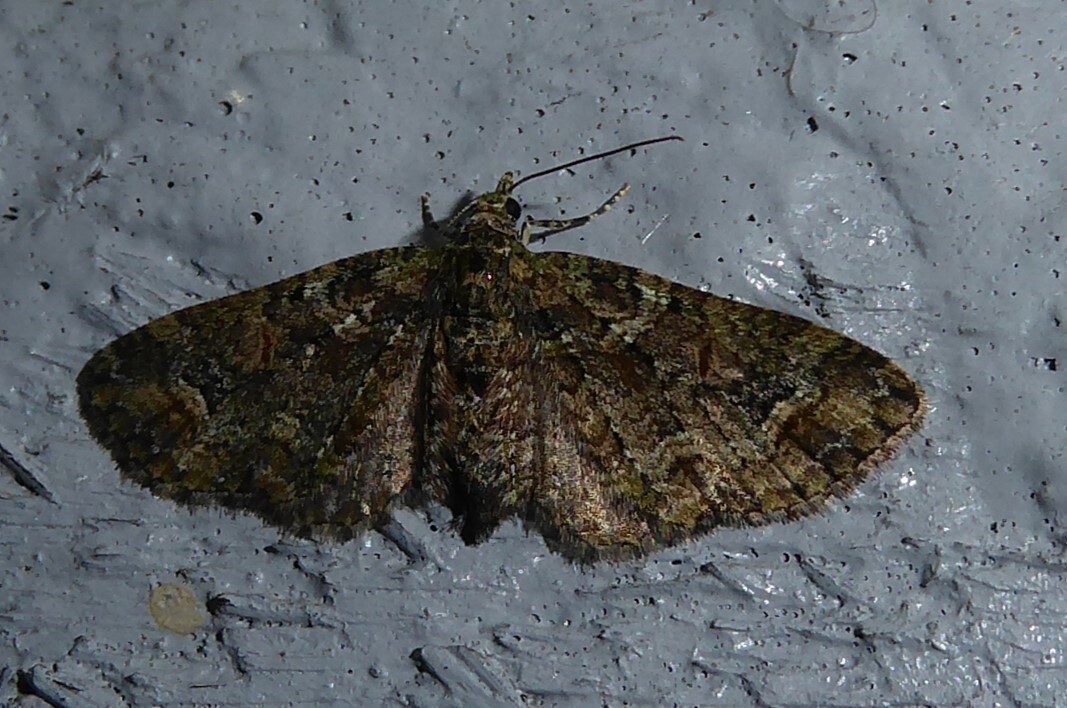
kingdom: Animalia
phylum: Arthropoda
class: Insecta
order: Lepidoptera
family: Geometridae
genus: Idaea
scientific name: Idaea mutanda
